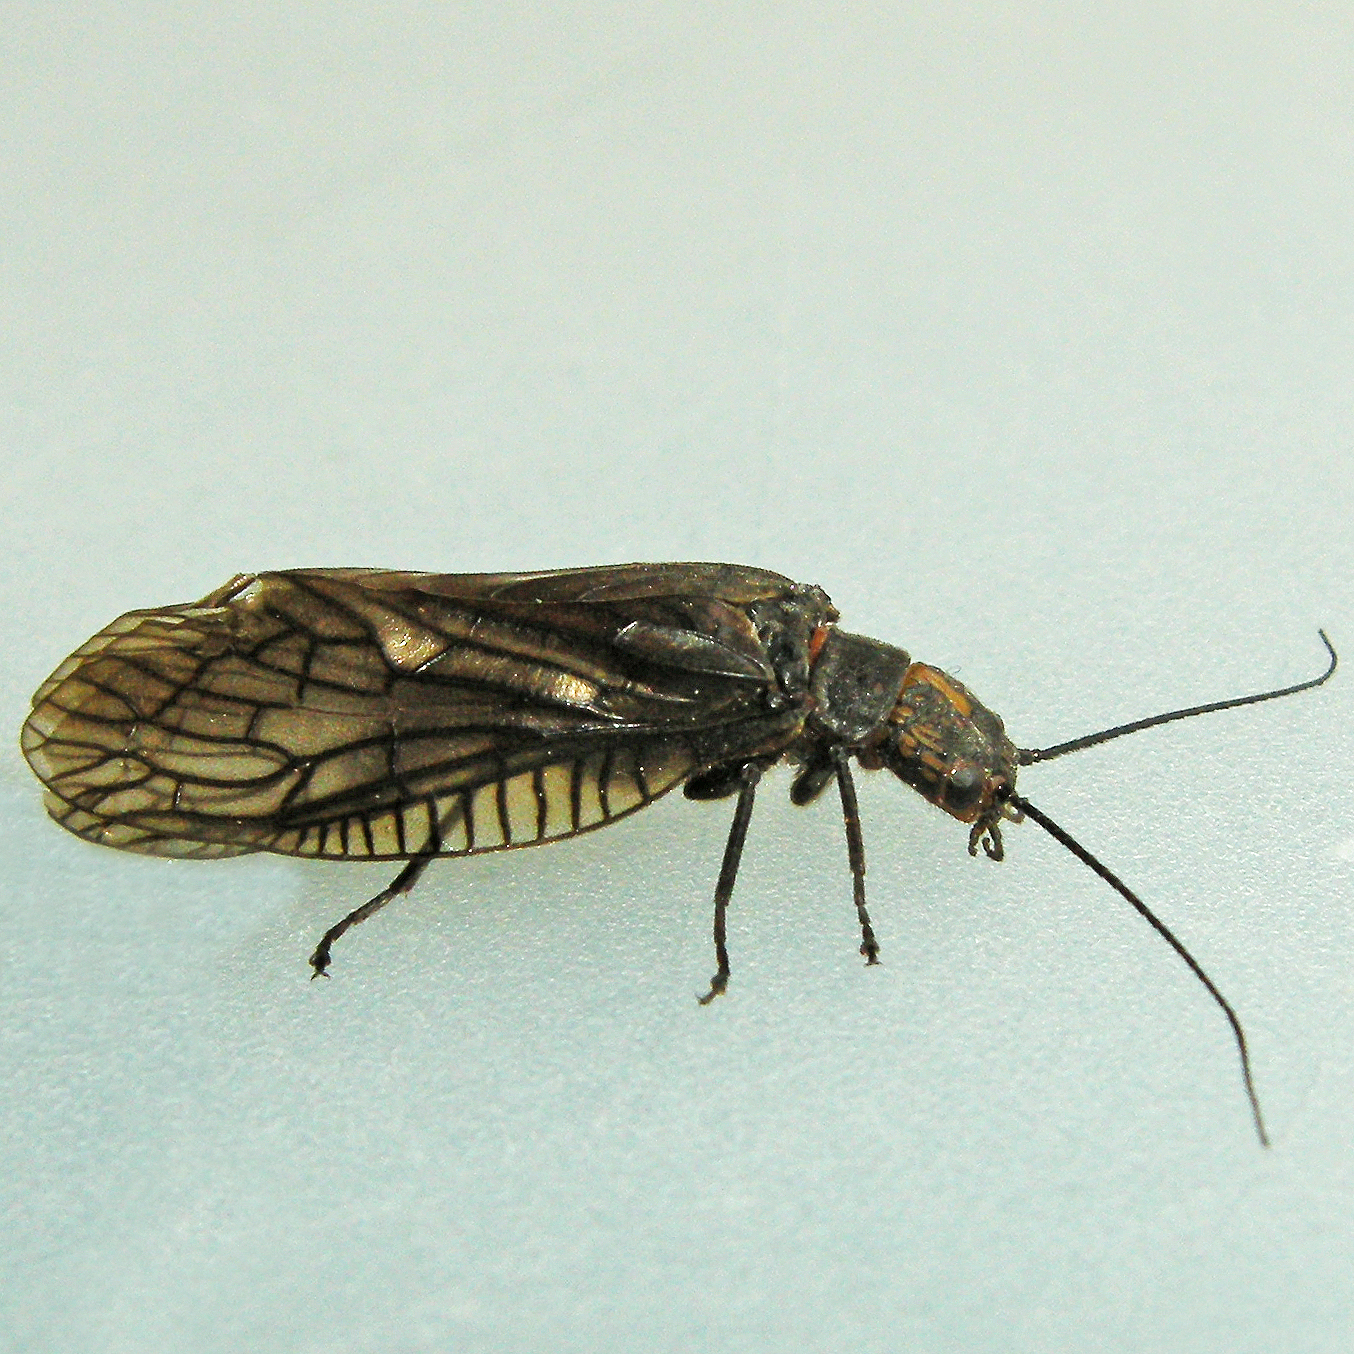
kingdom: Animalia
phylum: Arthropoda
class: Insecta
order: Megaloptera
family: Sialidae
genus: Sialis
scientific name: Sialis
